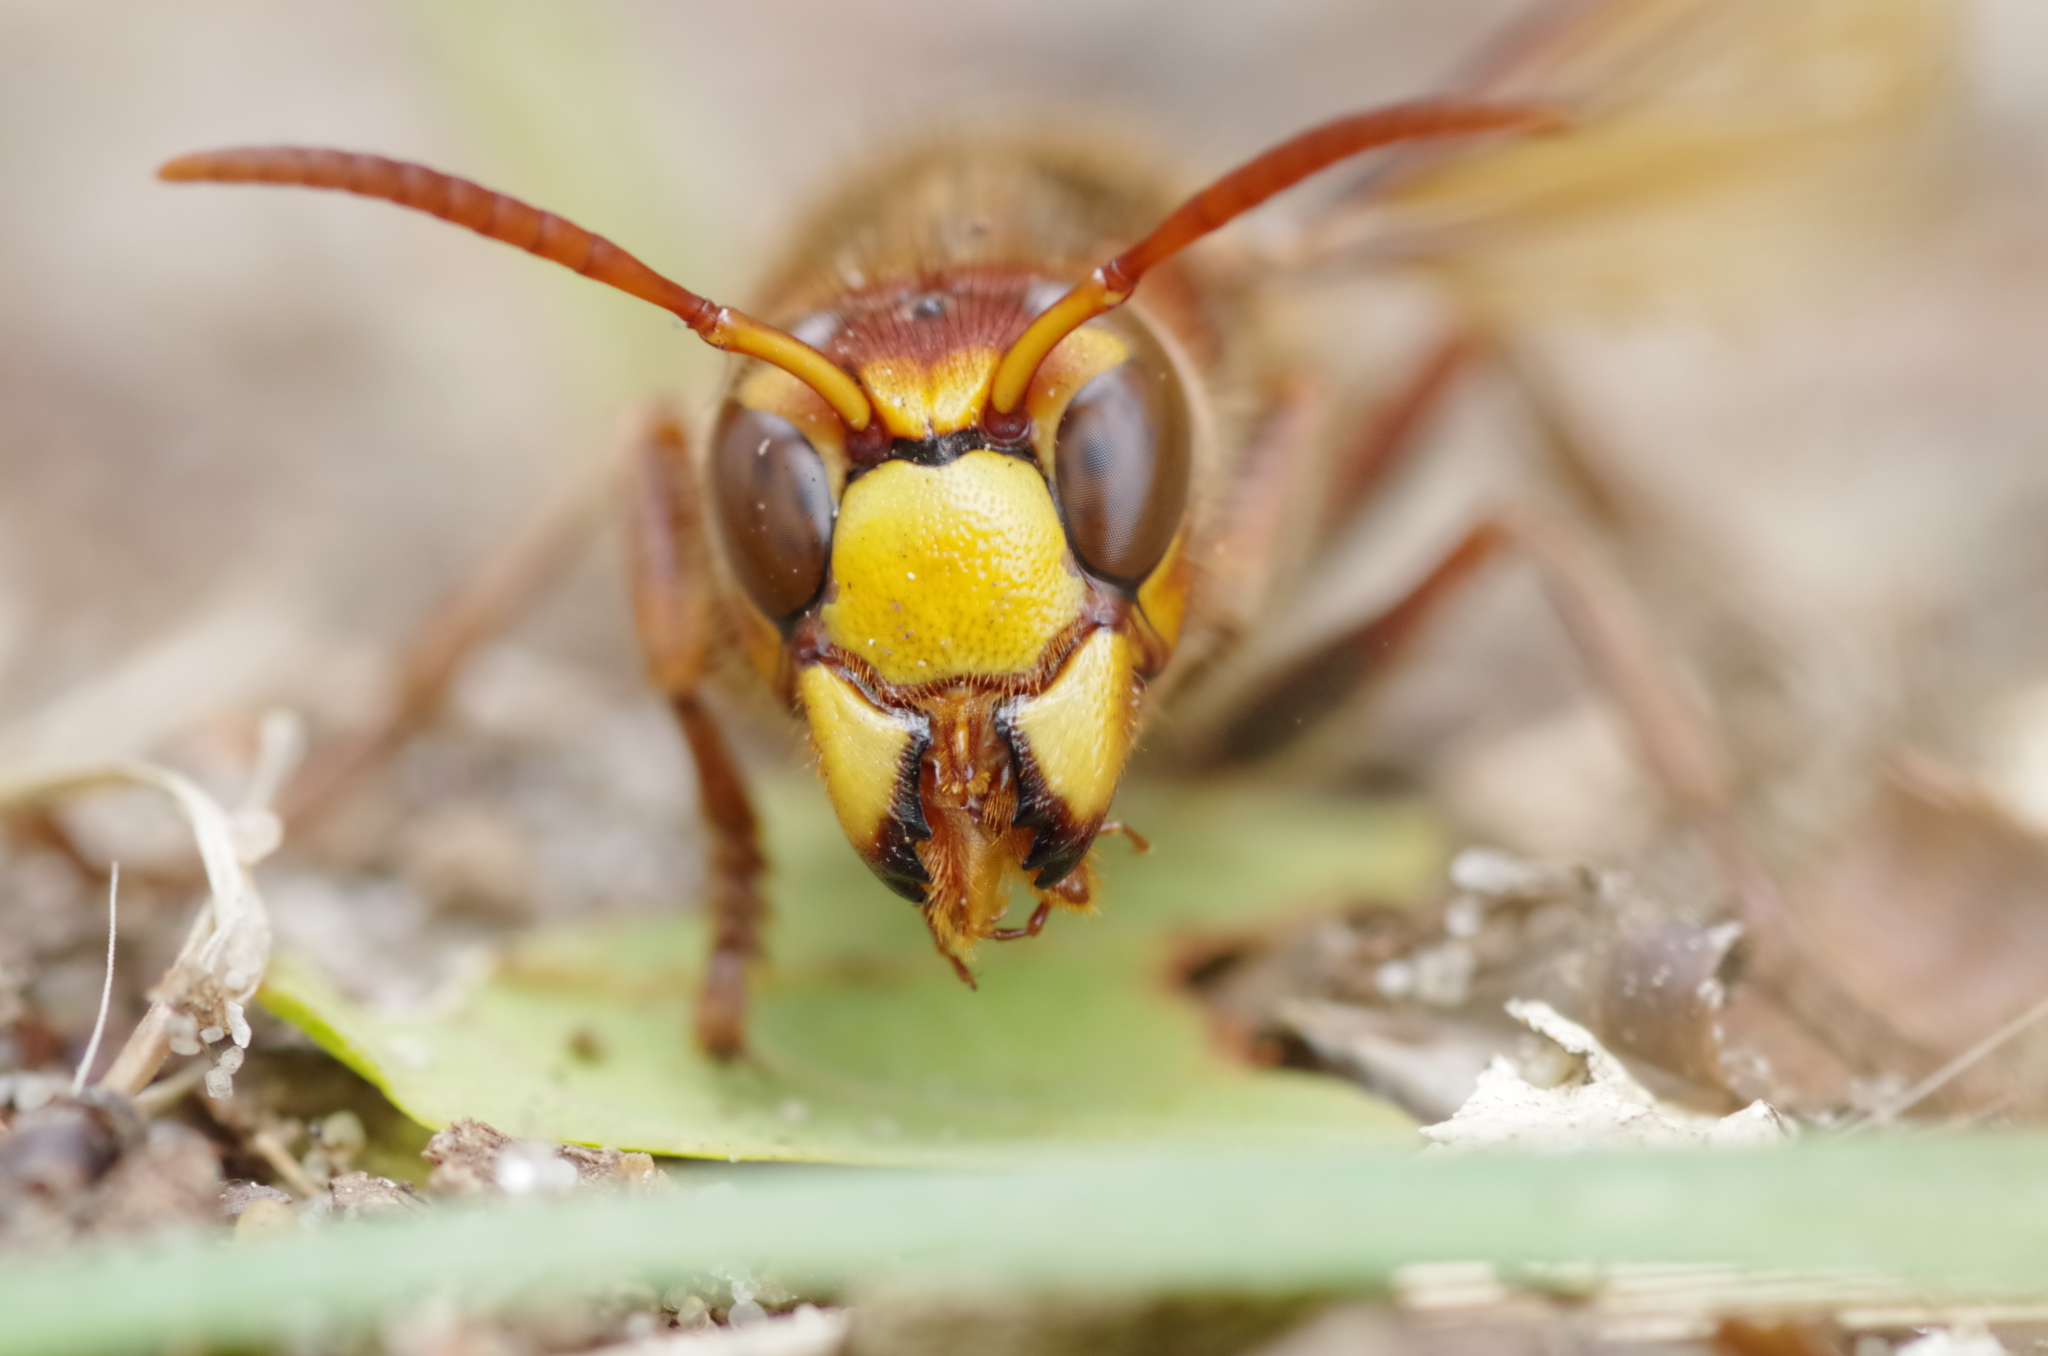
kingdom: Animalia
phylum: Arthropoda
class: Insecta
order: Hymenoptera
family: Vespidae
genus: Vespa
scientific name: Vespa crabro
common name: Hornet
